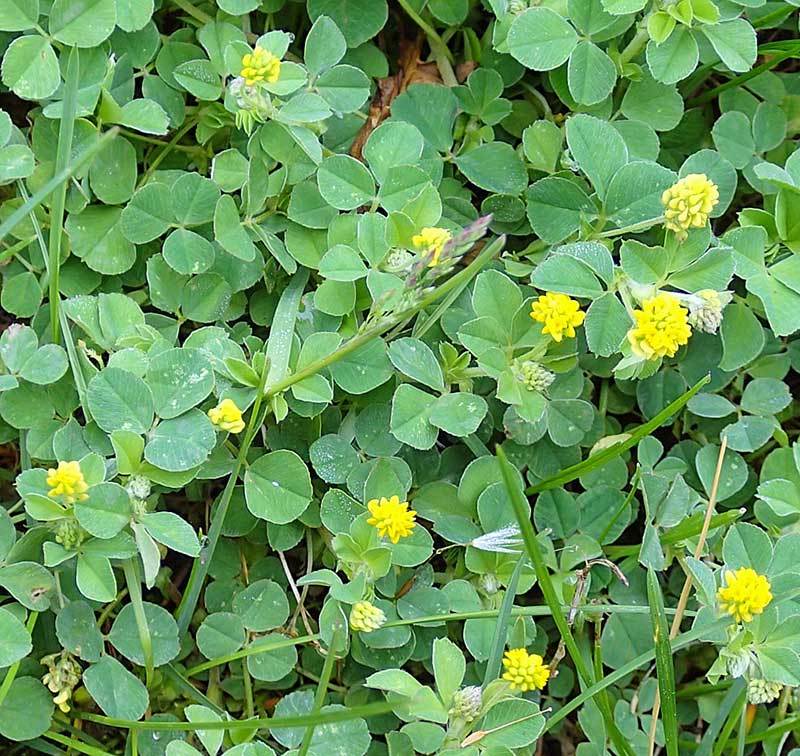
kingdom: Plantae
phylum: Tracheophyta
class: Magnoliopsida
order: Fabales
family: Fabaceae
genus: Medicago
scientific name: Medicago lupulina
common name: Black medick
